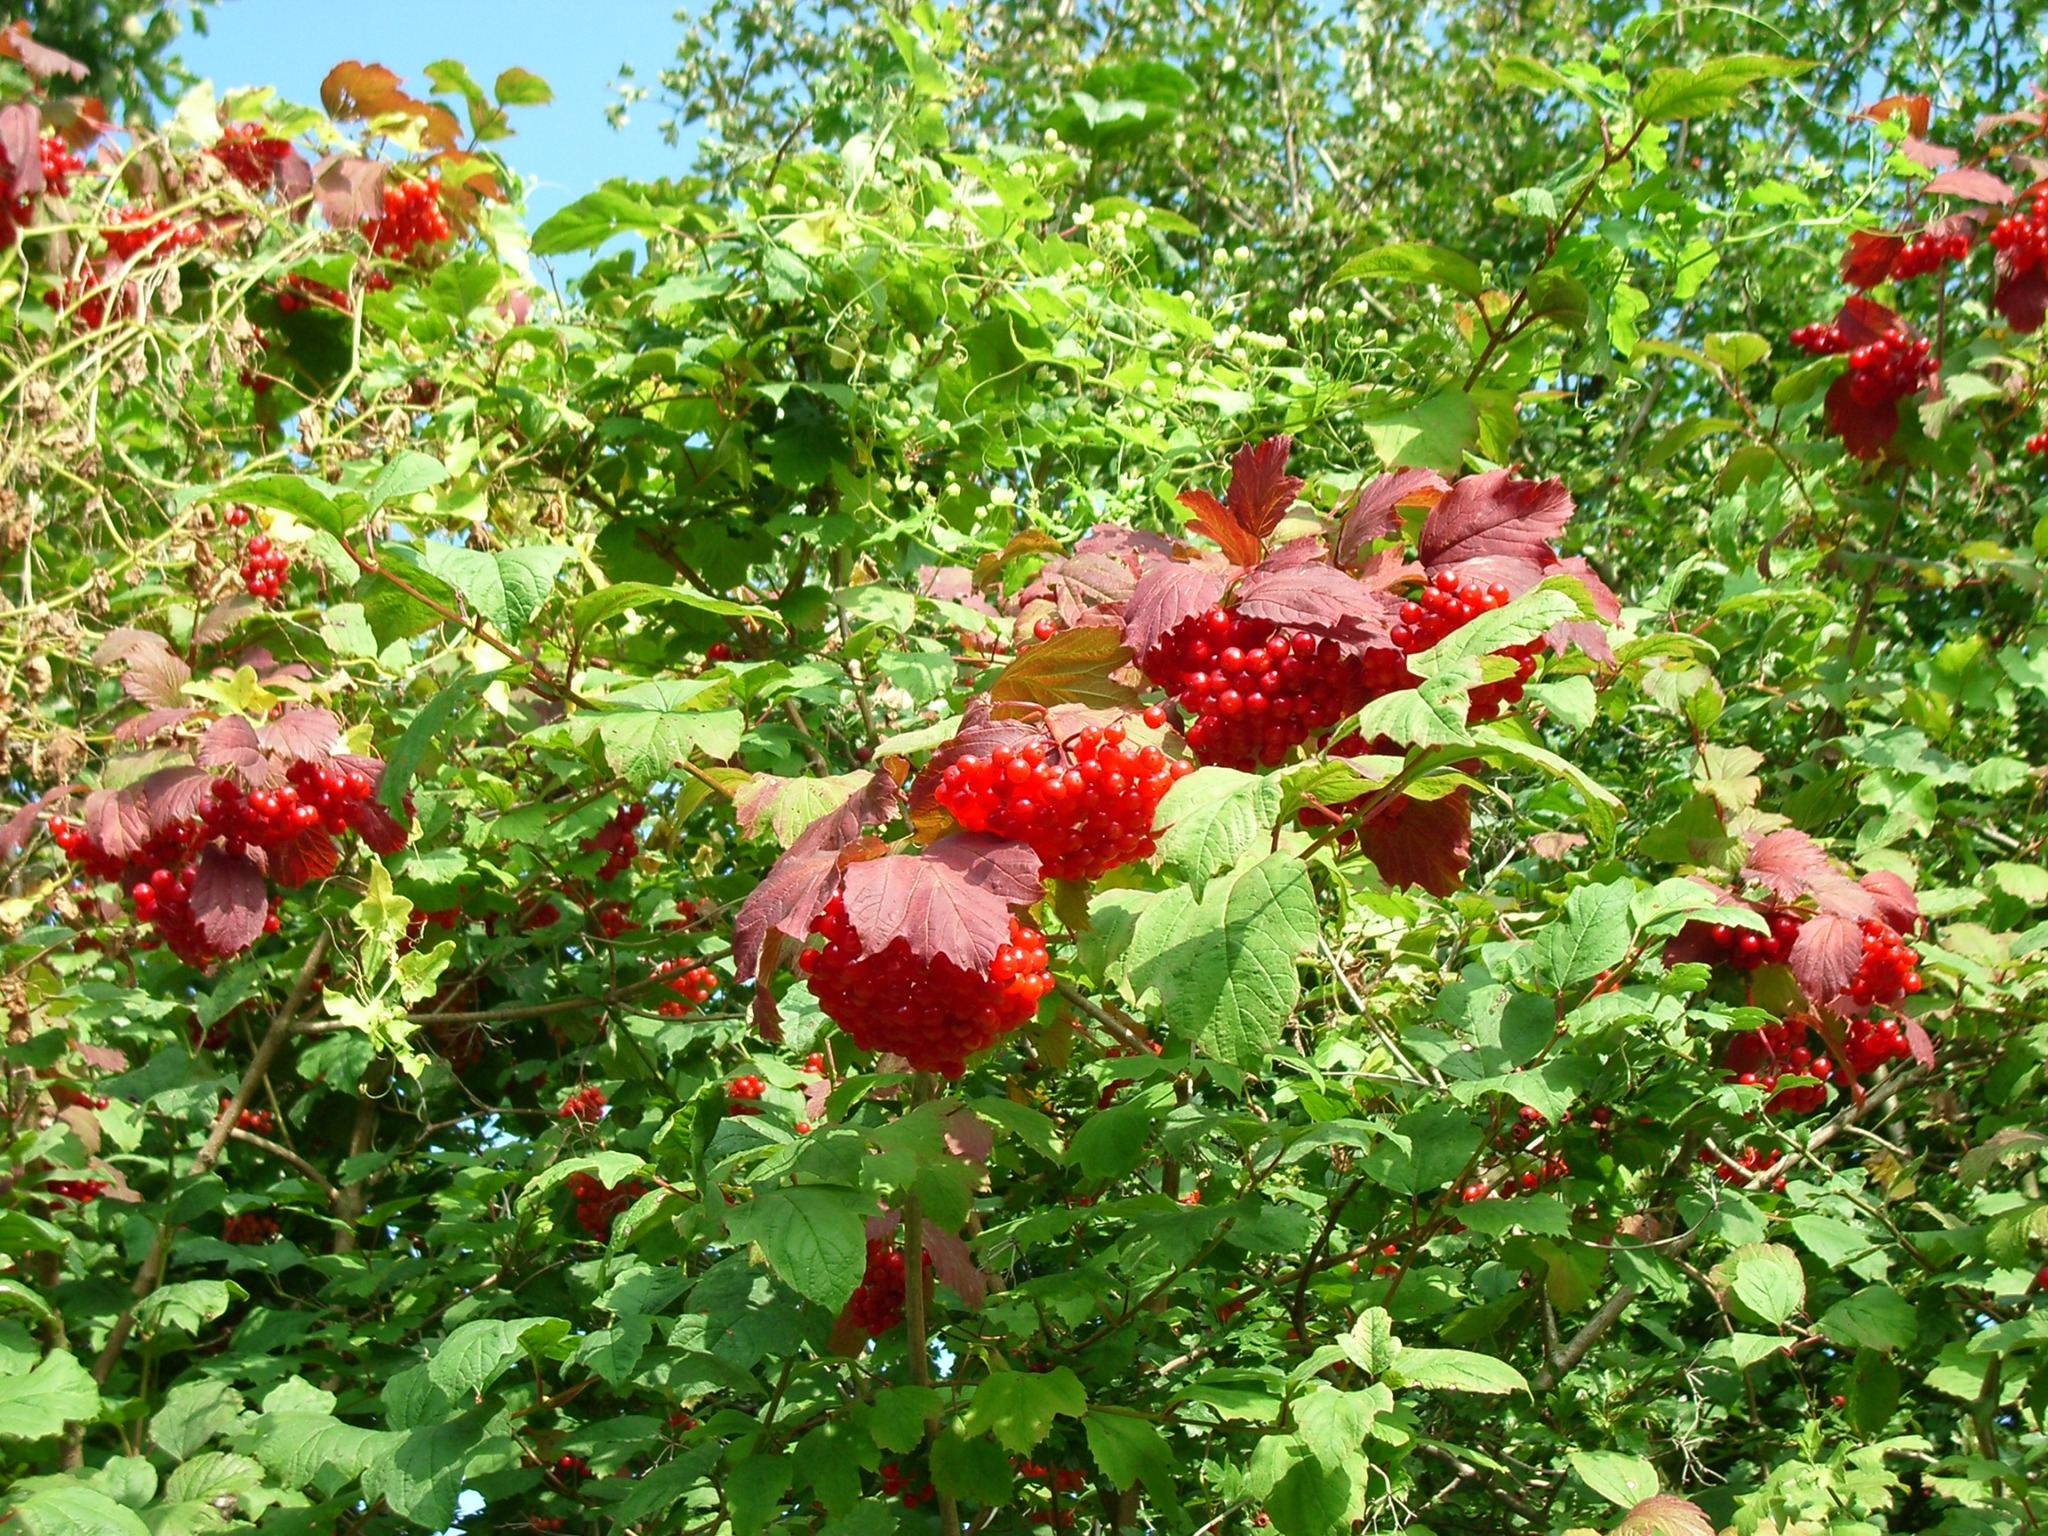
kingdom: Plantae
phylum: Tracheophyta
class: Magnoliopsida
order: Dipsacales
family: Viburnaceae
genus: Viburnum
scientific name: Viburnum opulus
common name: Guelder-rose
